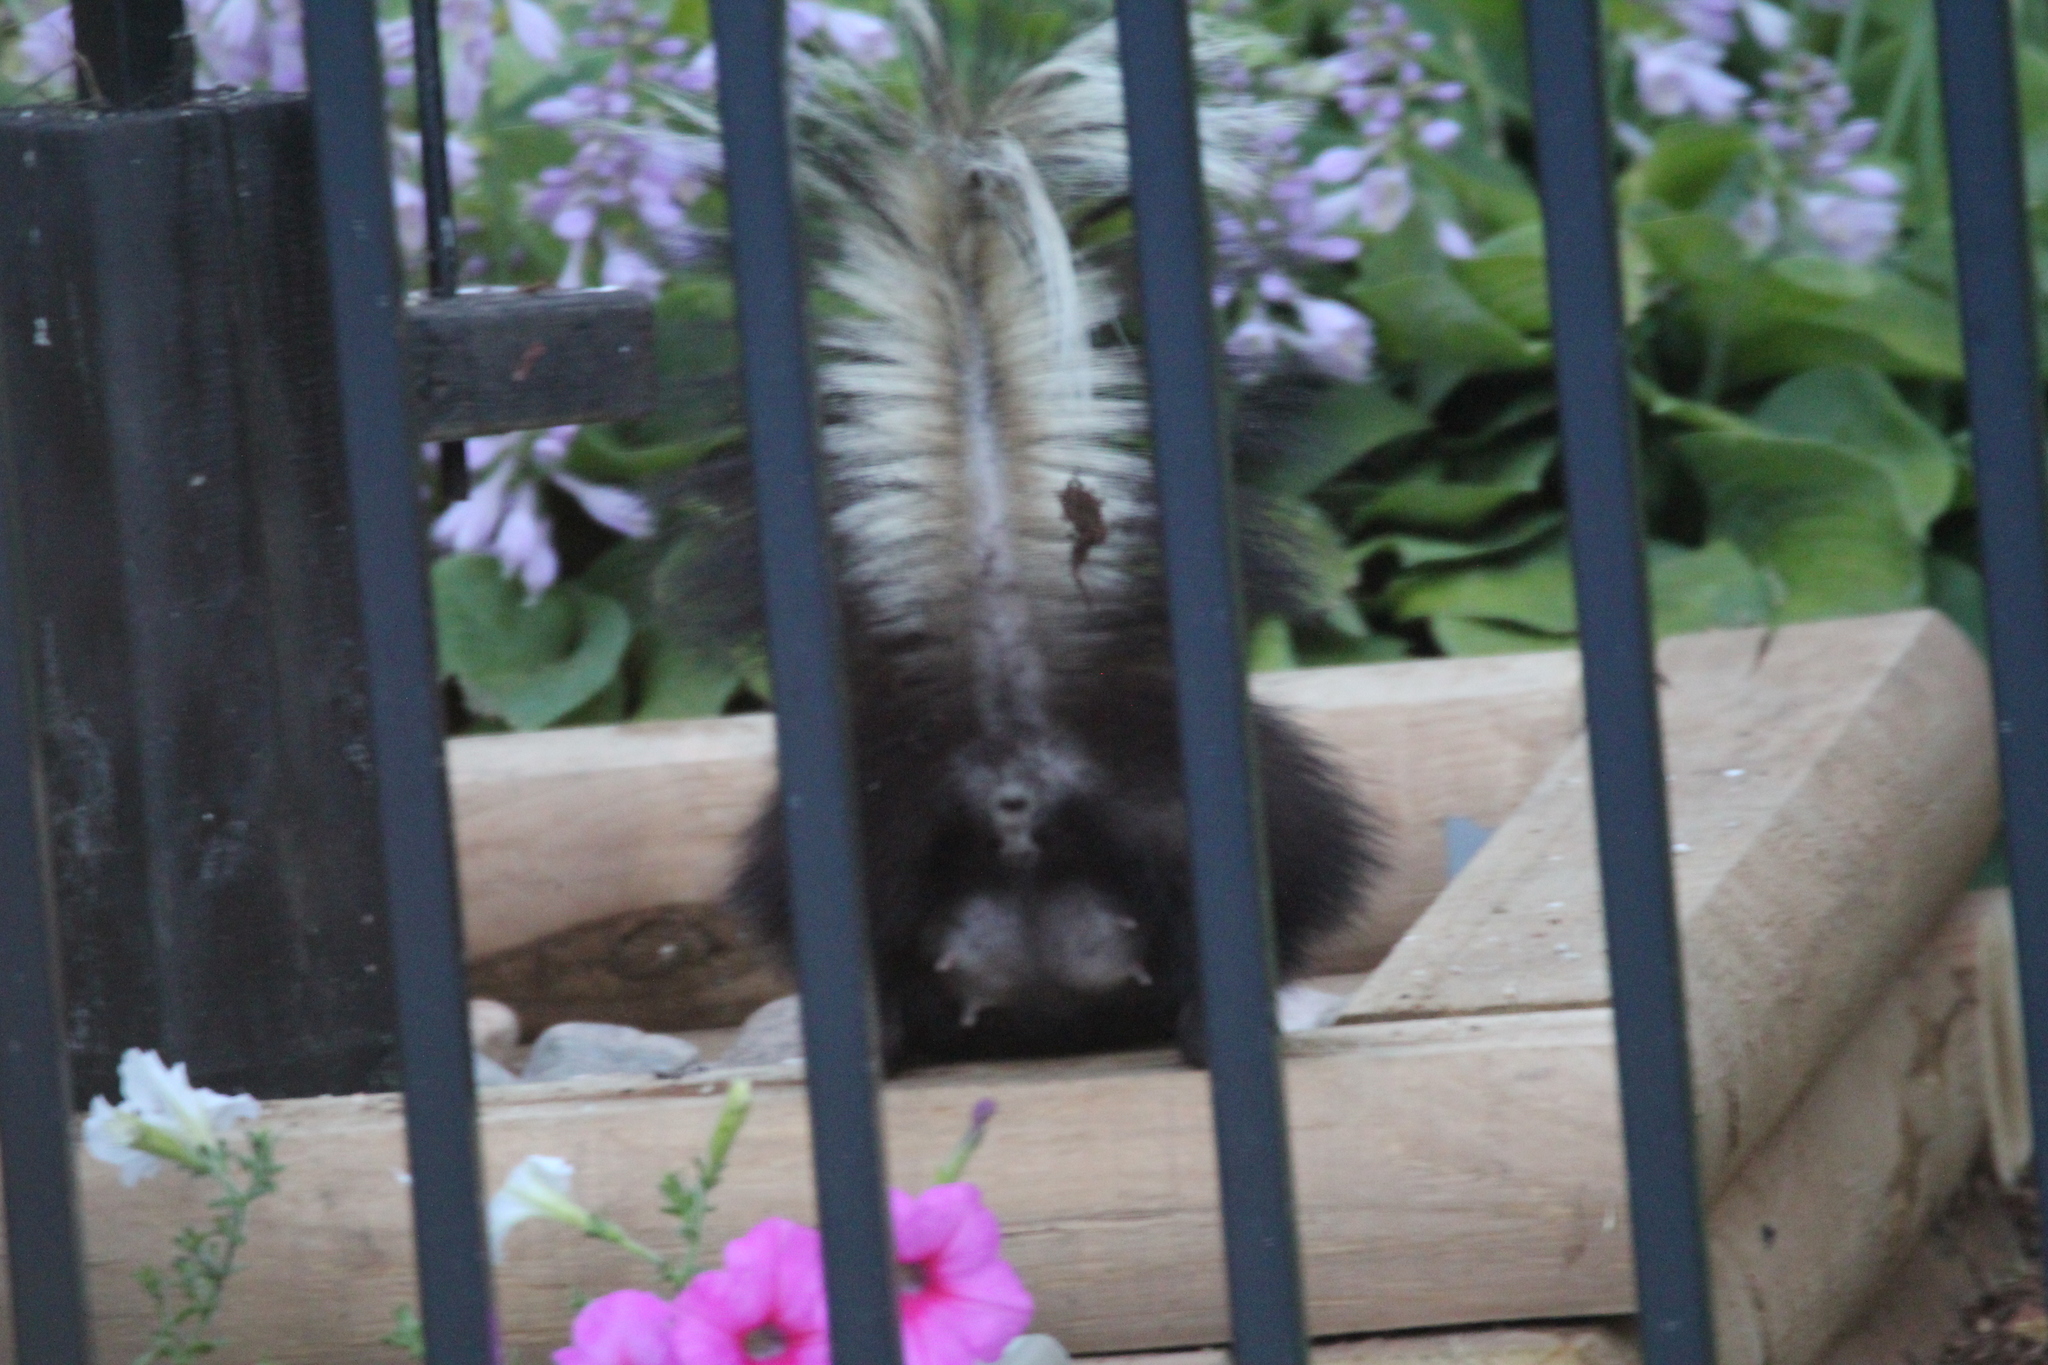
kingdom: Animalia
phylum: Chordata
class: Mammalia
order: Carnivora
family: Mephitidae
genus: Mephitis
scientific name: Mephitis mephitis
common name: Striped skunk
